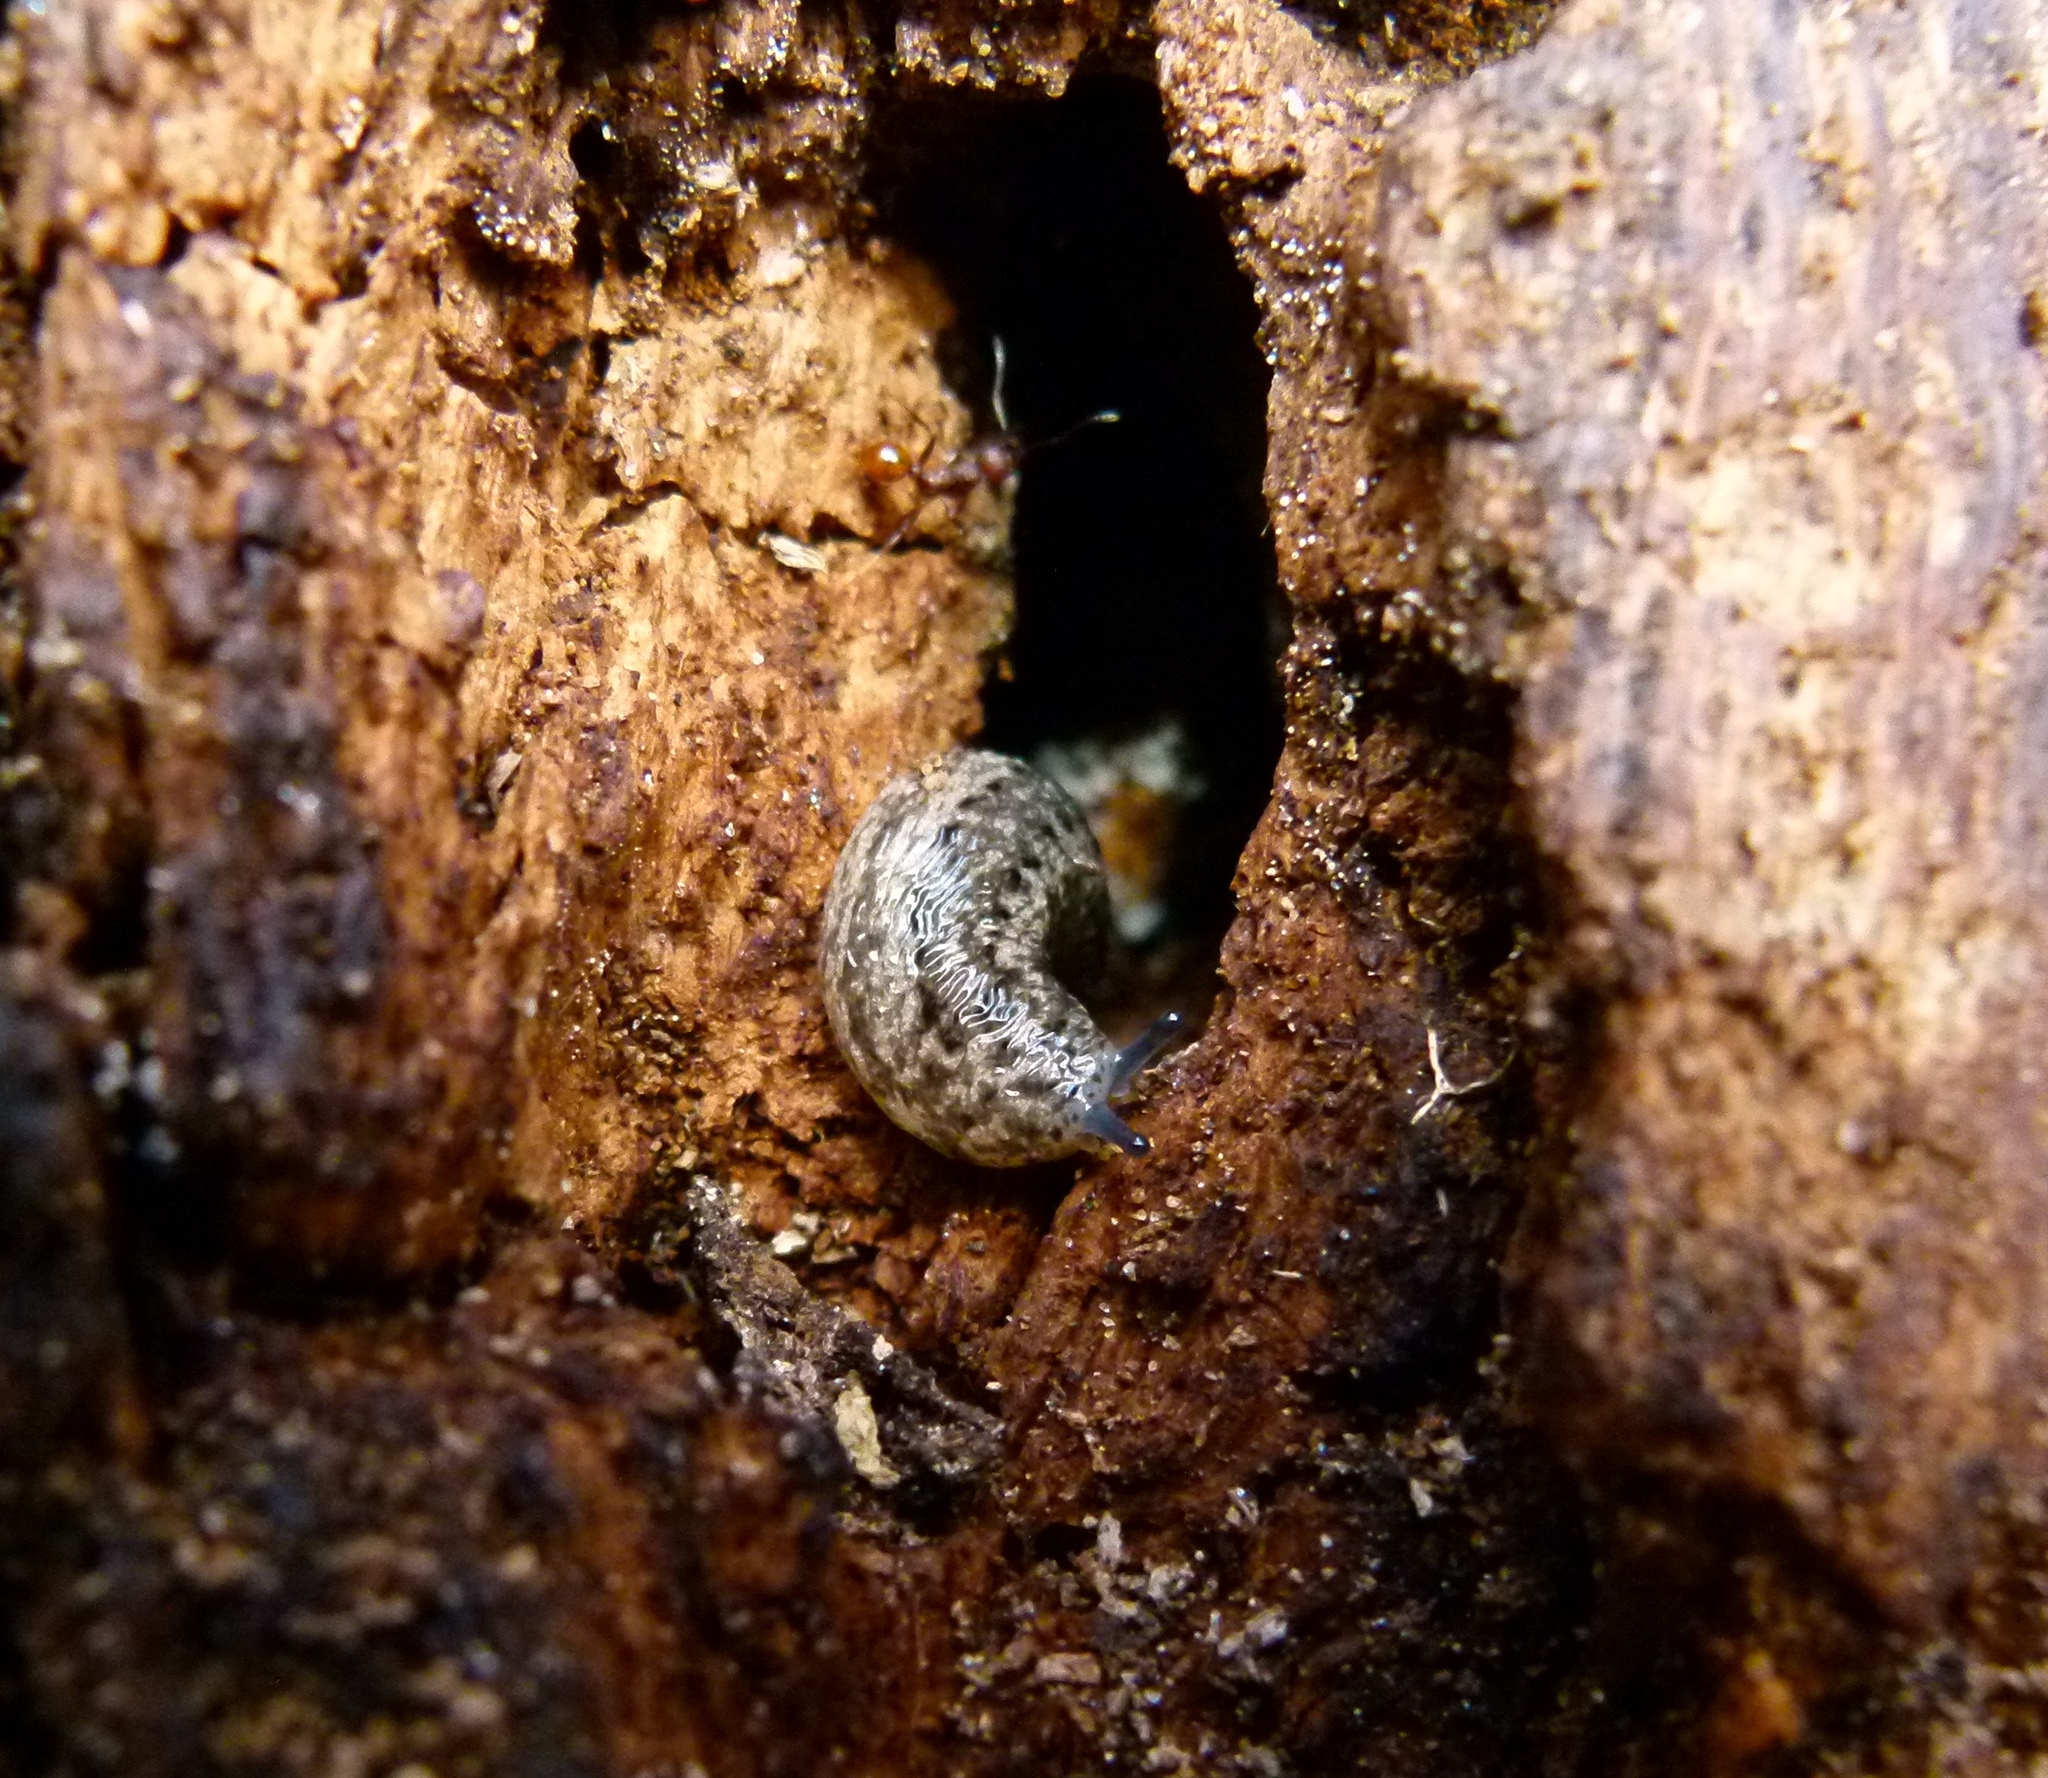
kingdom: Animalia
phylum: Mollusca
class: Gastropoda
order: Stylommatophora
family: Philomycidae
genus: Philomycus
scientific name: Philomycus carolinianus
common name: Carolina mantleslug
